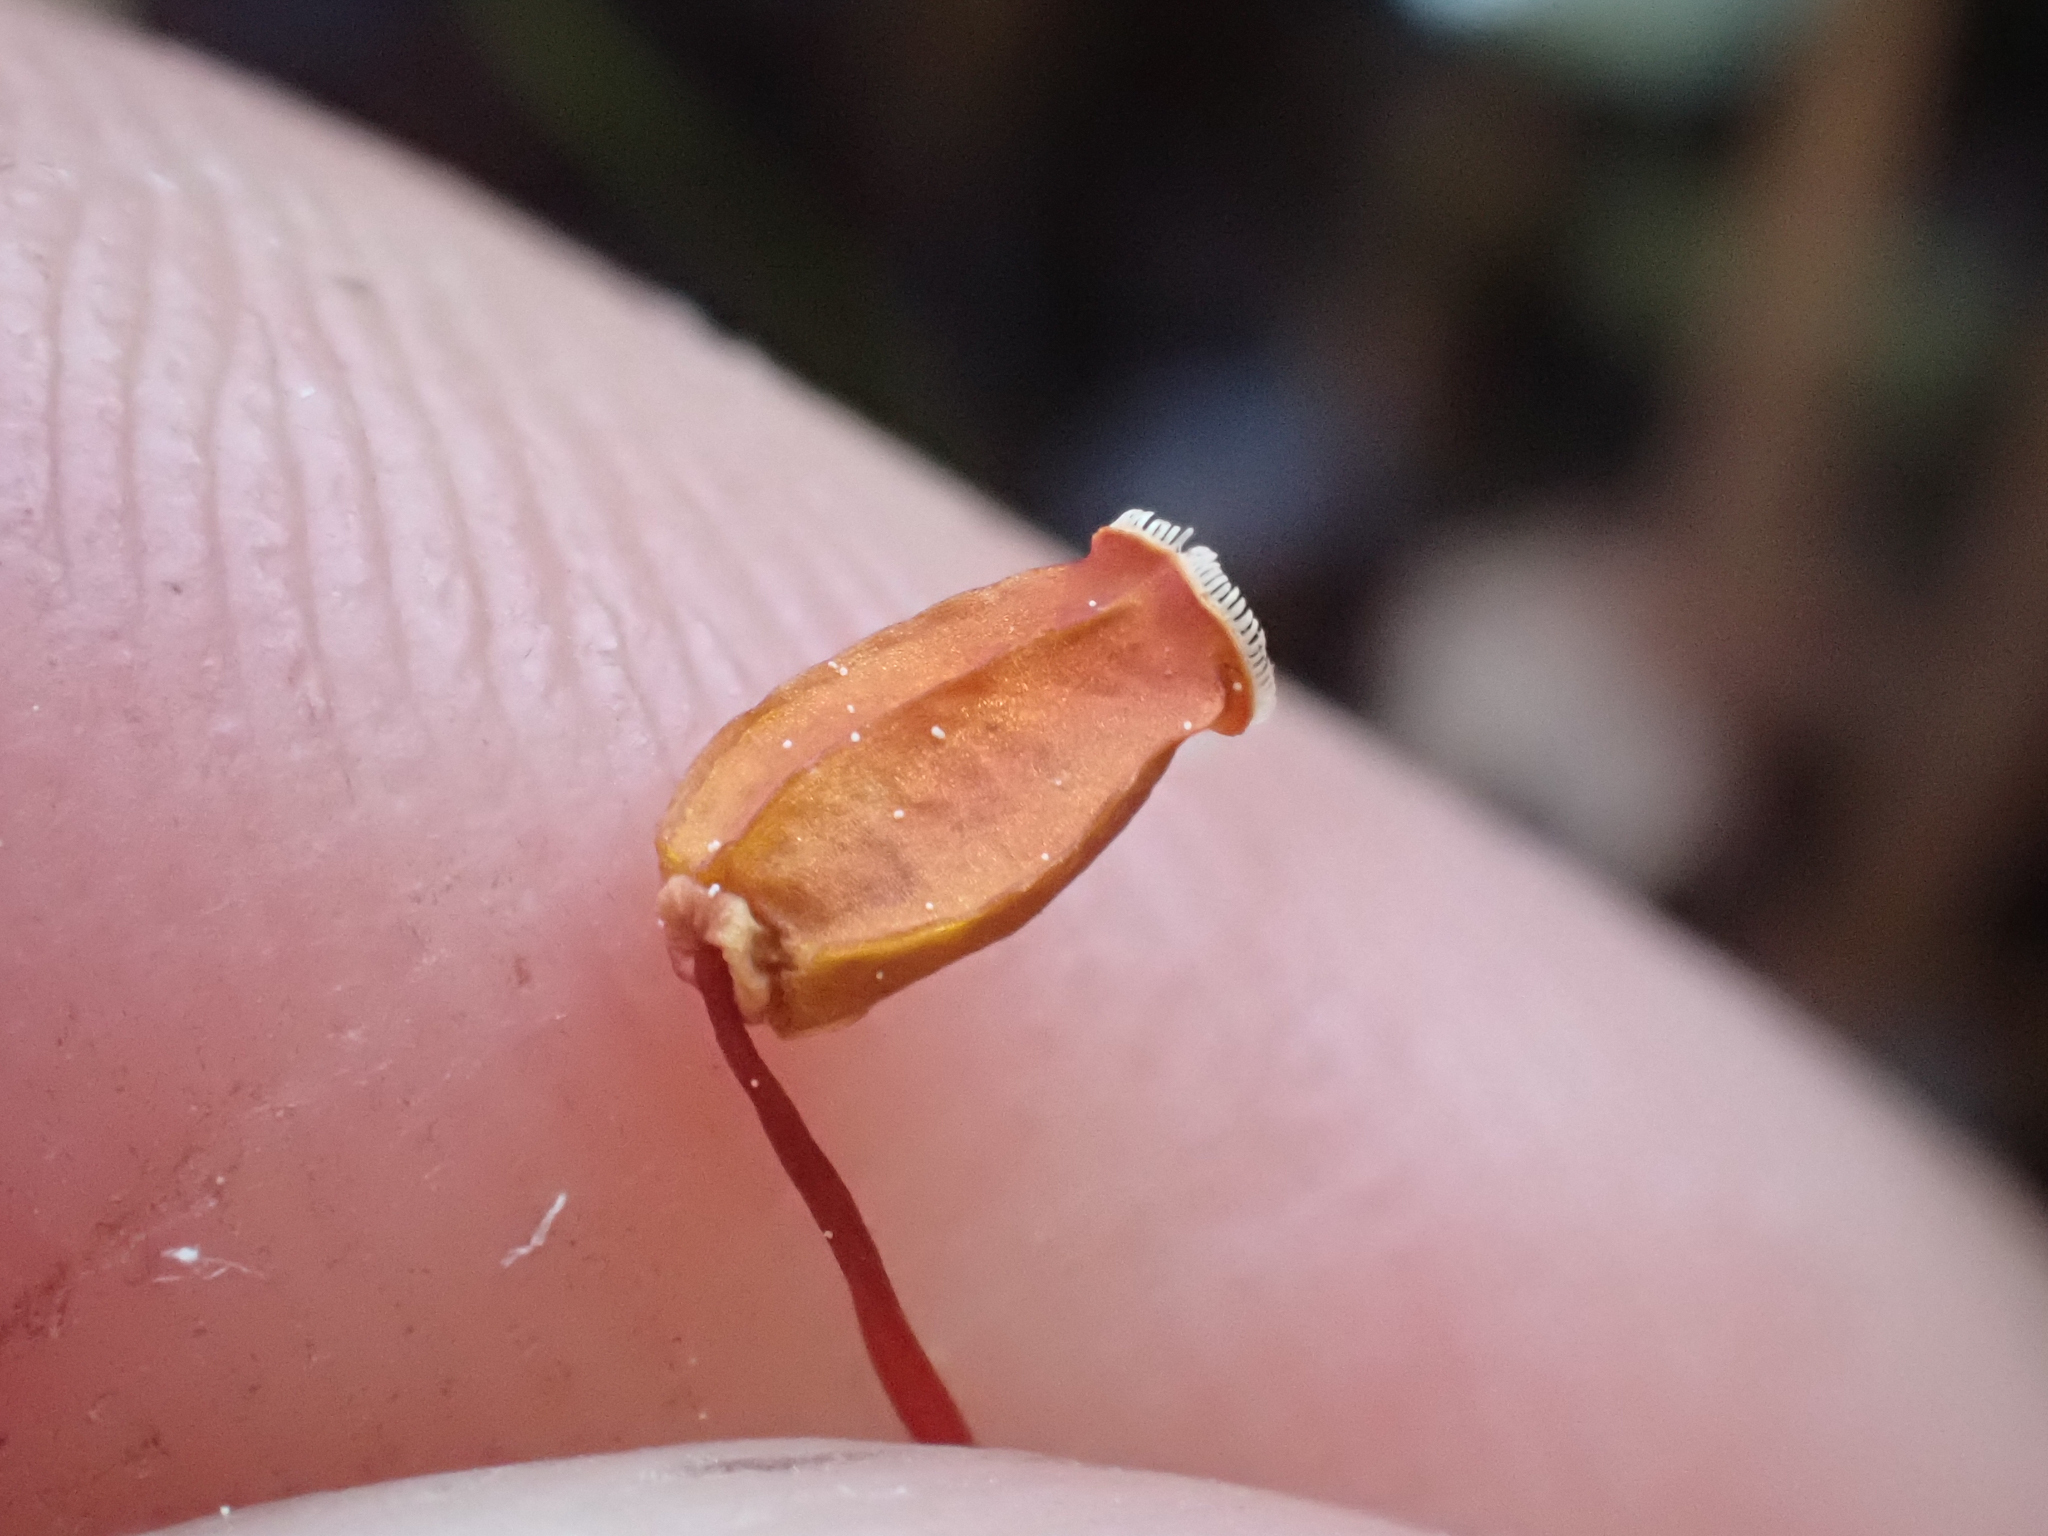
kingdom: Plantae
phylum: Bryophyta
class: Polytrichopsida
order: Polytrichales
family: Polytrichaceae
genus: Polytrichum
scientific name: Polytrichum piliferum
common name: Bristly haircap
